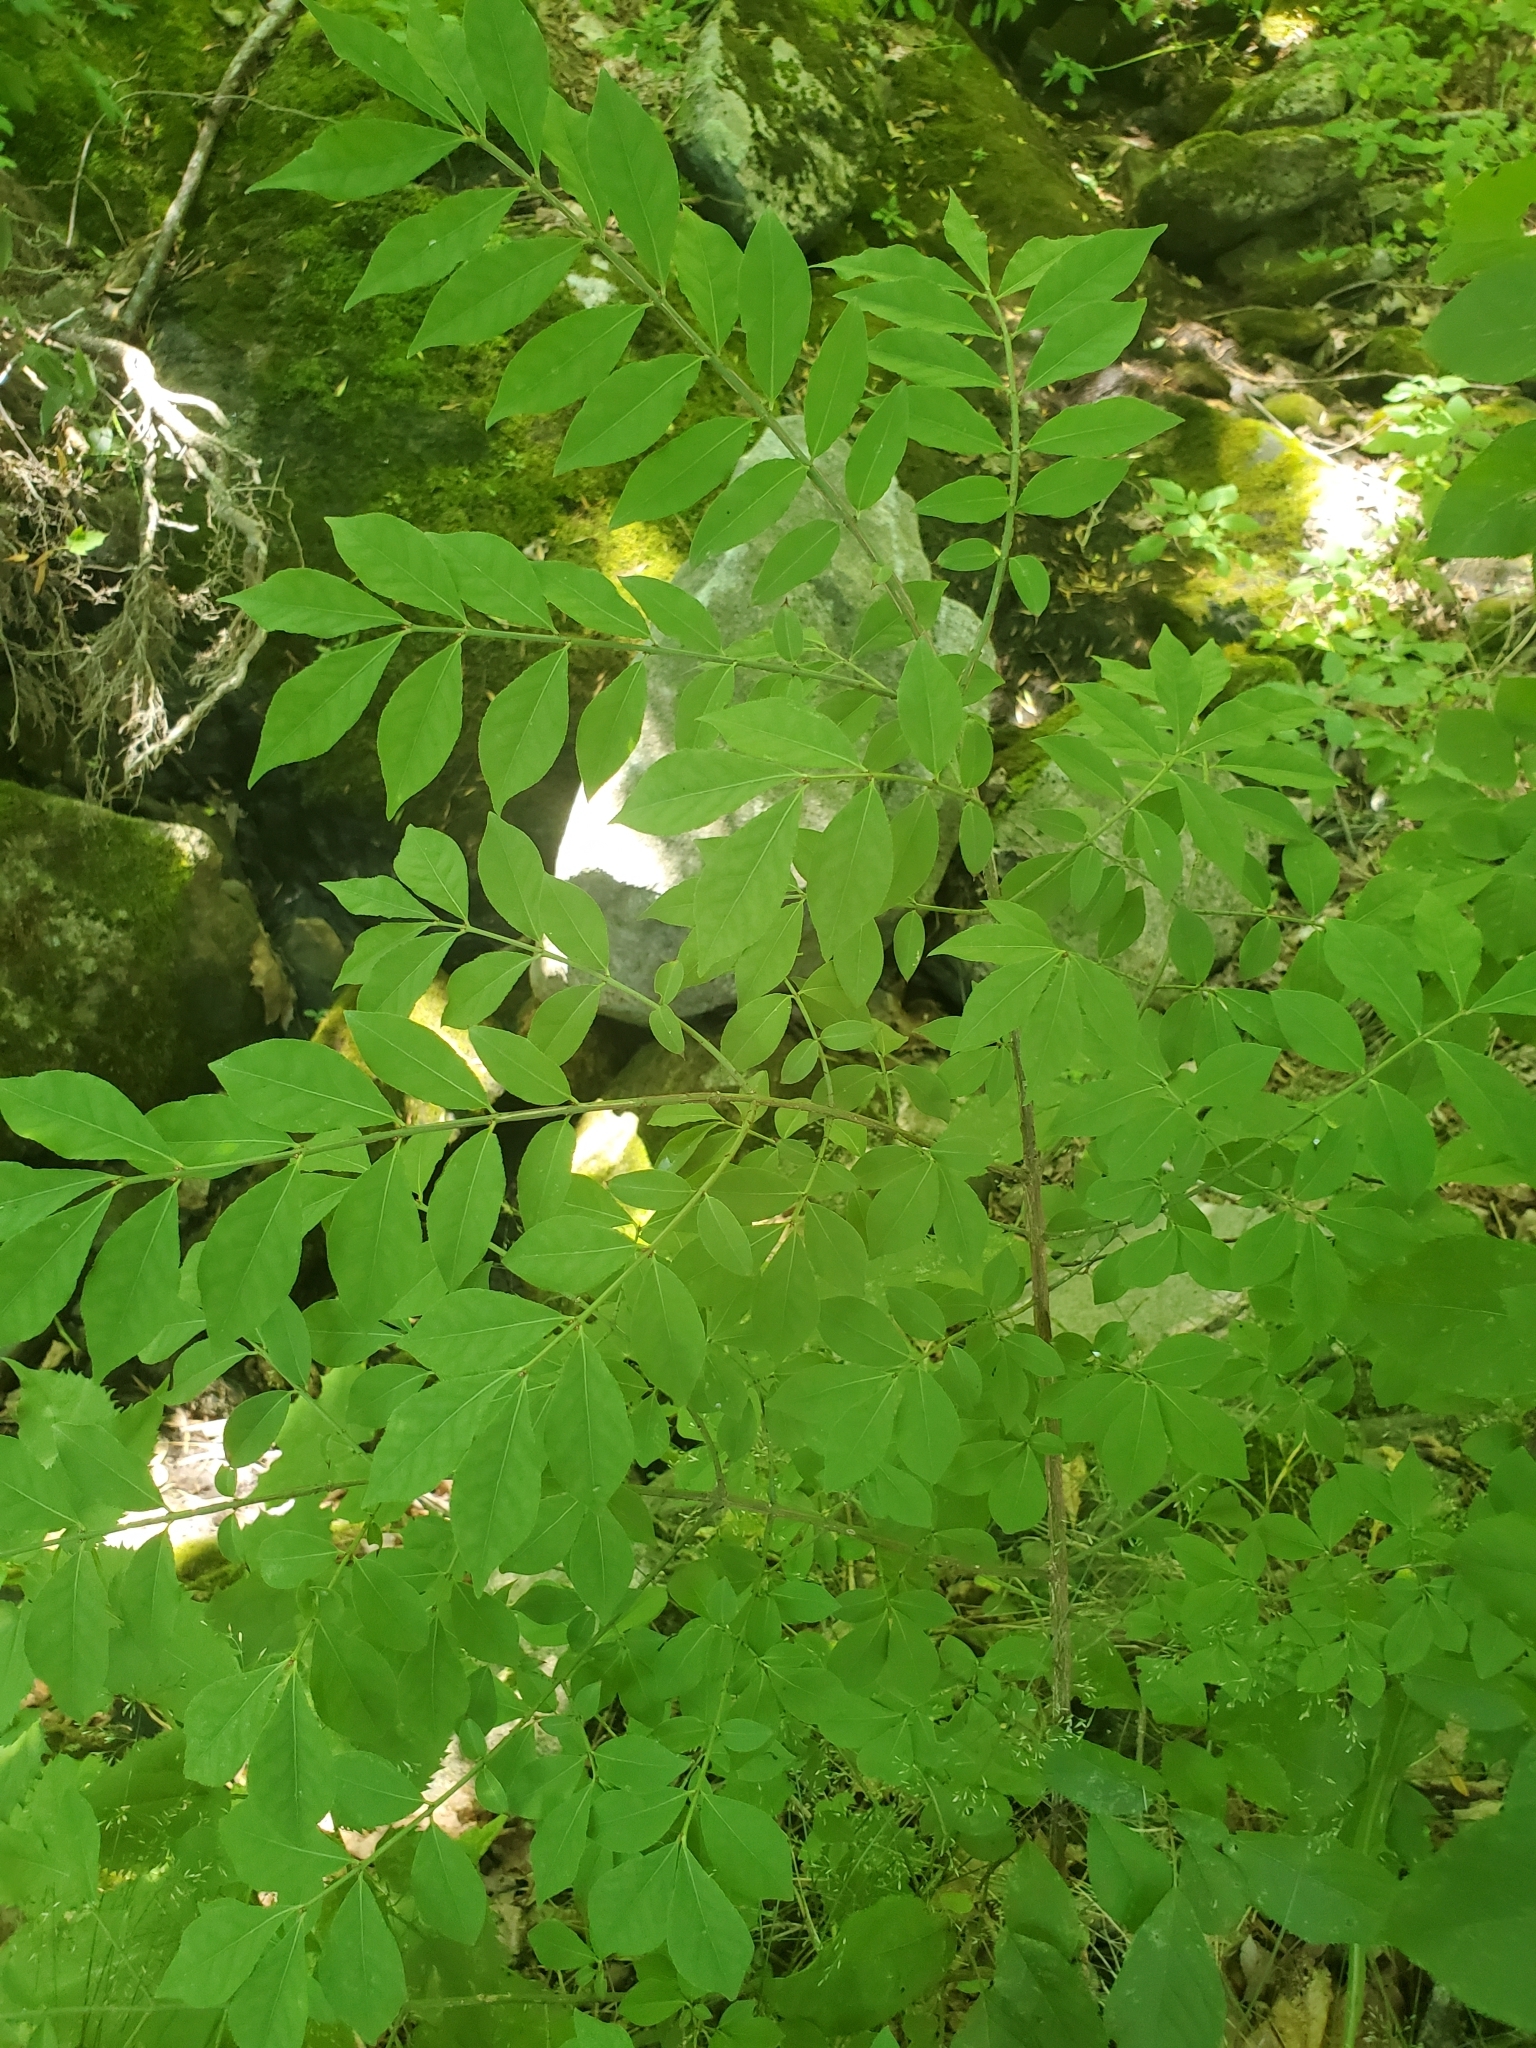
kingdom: Plantae
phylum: Tracheophyta
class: Magnoliopsida
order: Celastrales
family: Celastraceae
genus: Euonymus
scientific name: Euonymus alatus
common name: Winged euonymus
